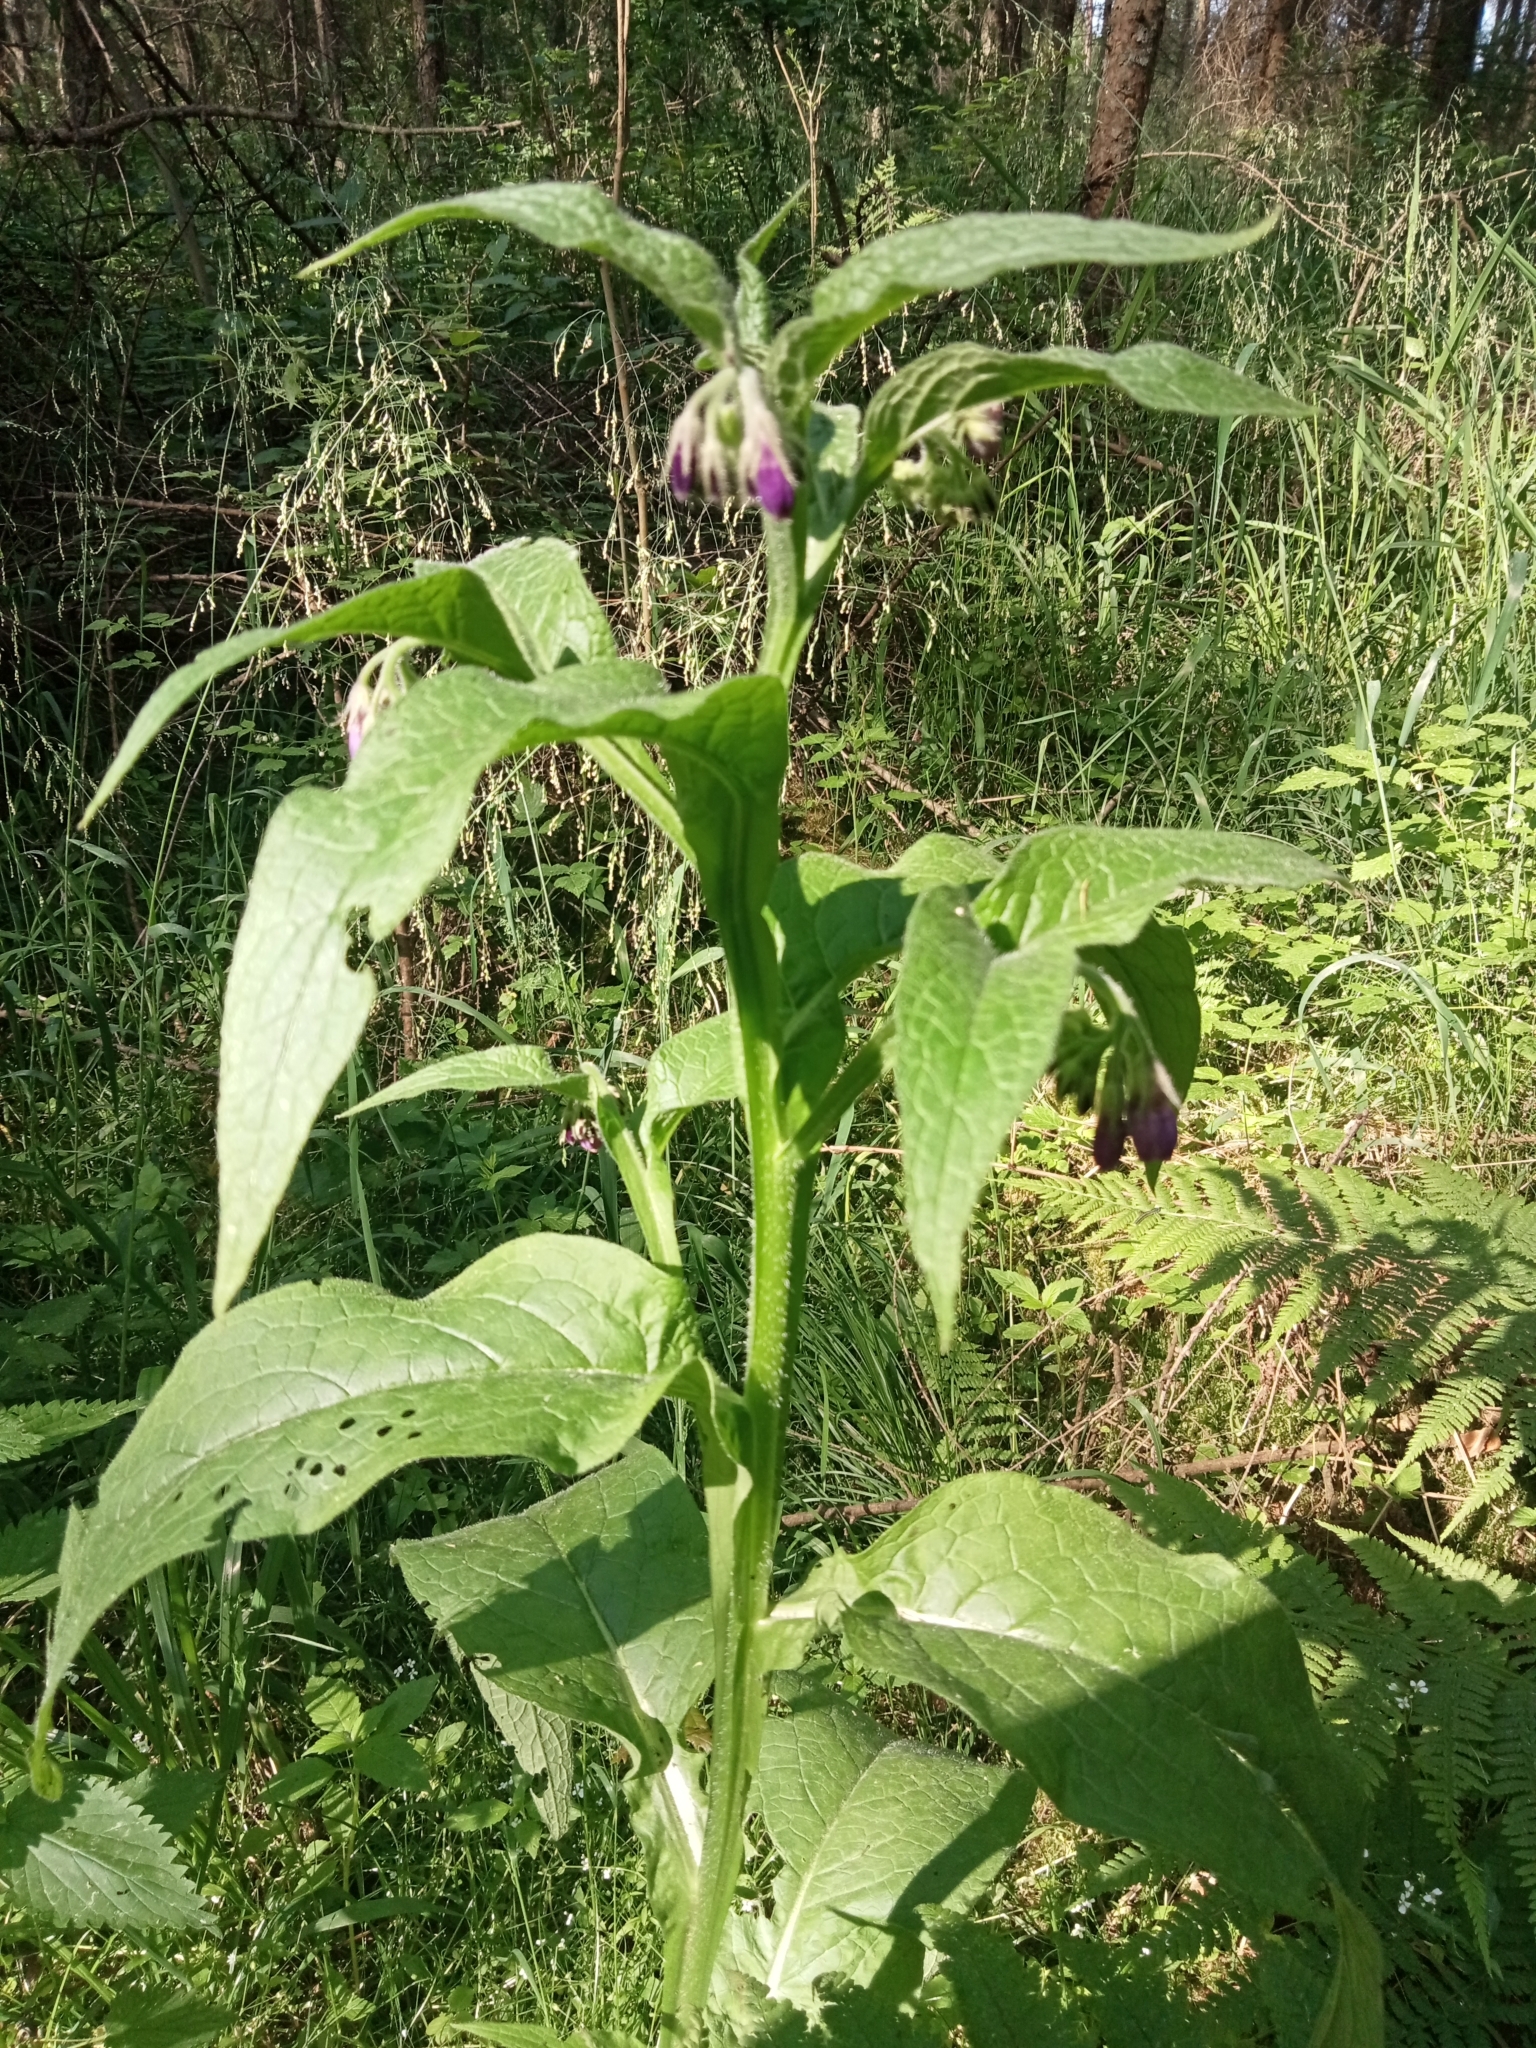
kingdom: Plantae
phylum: Tracheophyta
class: Magnoliopsida
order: Boraginales
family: Boraginaceae
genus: Symphytum
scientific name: Symphytum officinale
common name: Common comfrey
